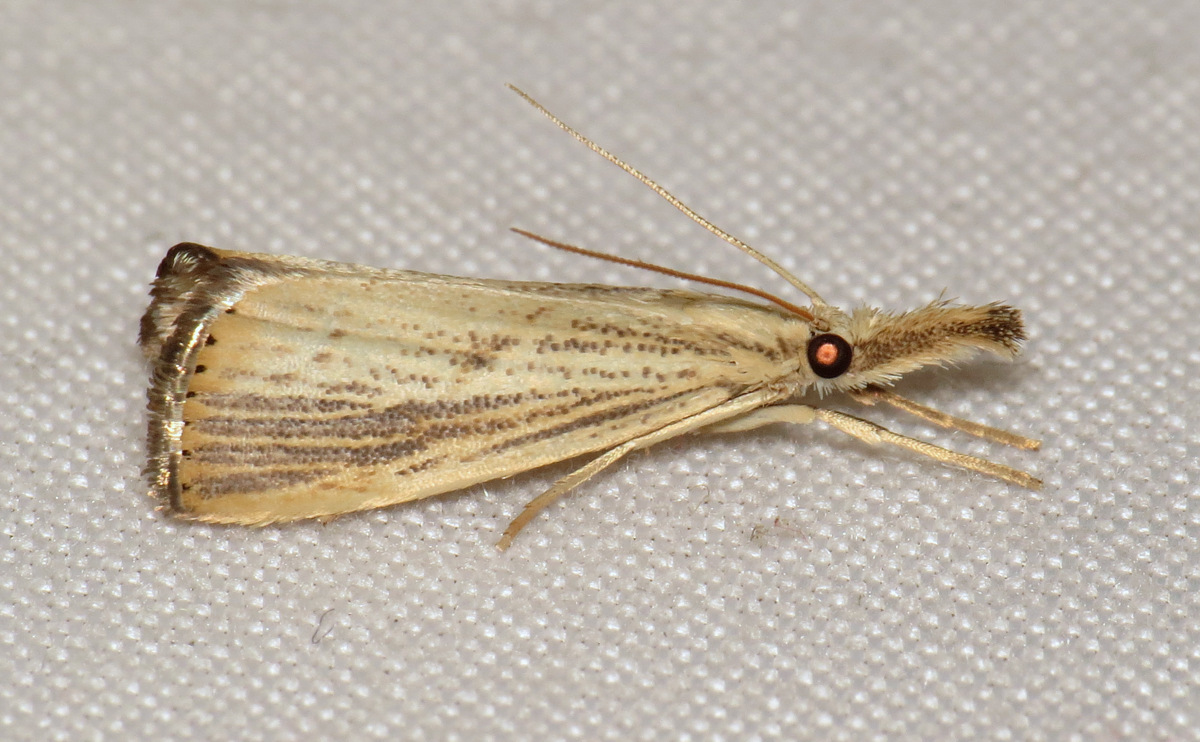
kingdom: Animalia
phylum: Arthropoda
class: Insecta
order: Lepidoptera
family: Crambidae
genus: Agriphila
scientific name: Agriphila ruricolellus
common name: Lesser vagabond sod webworm
